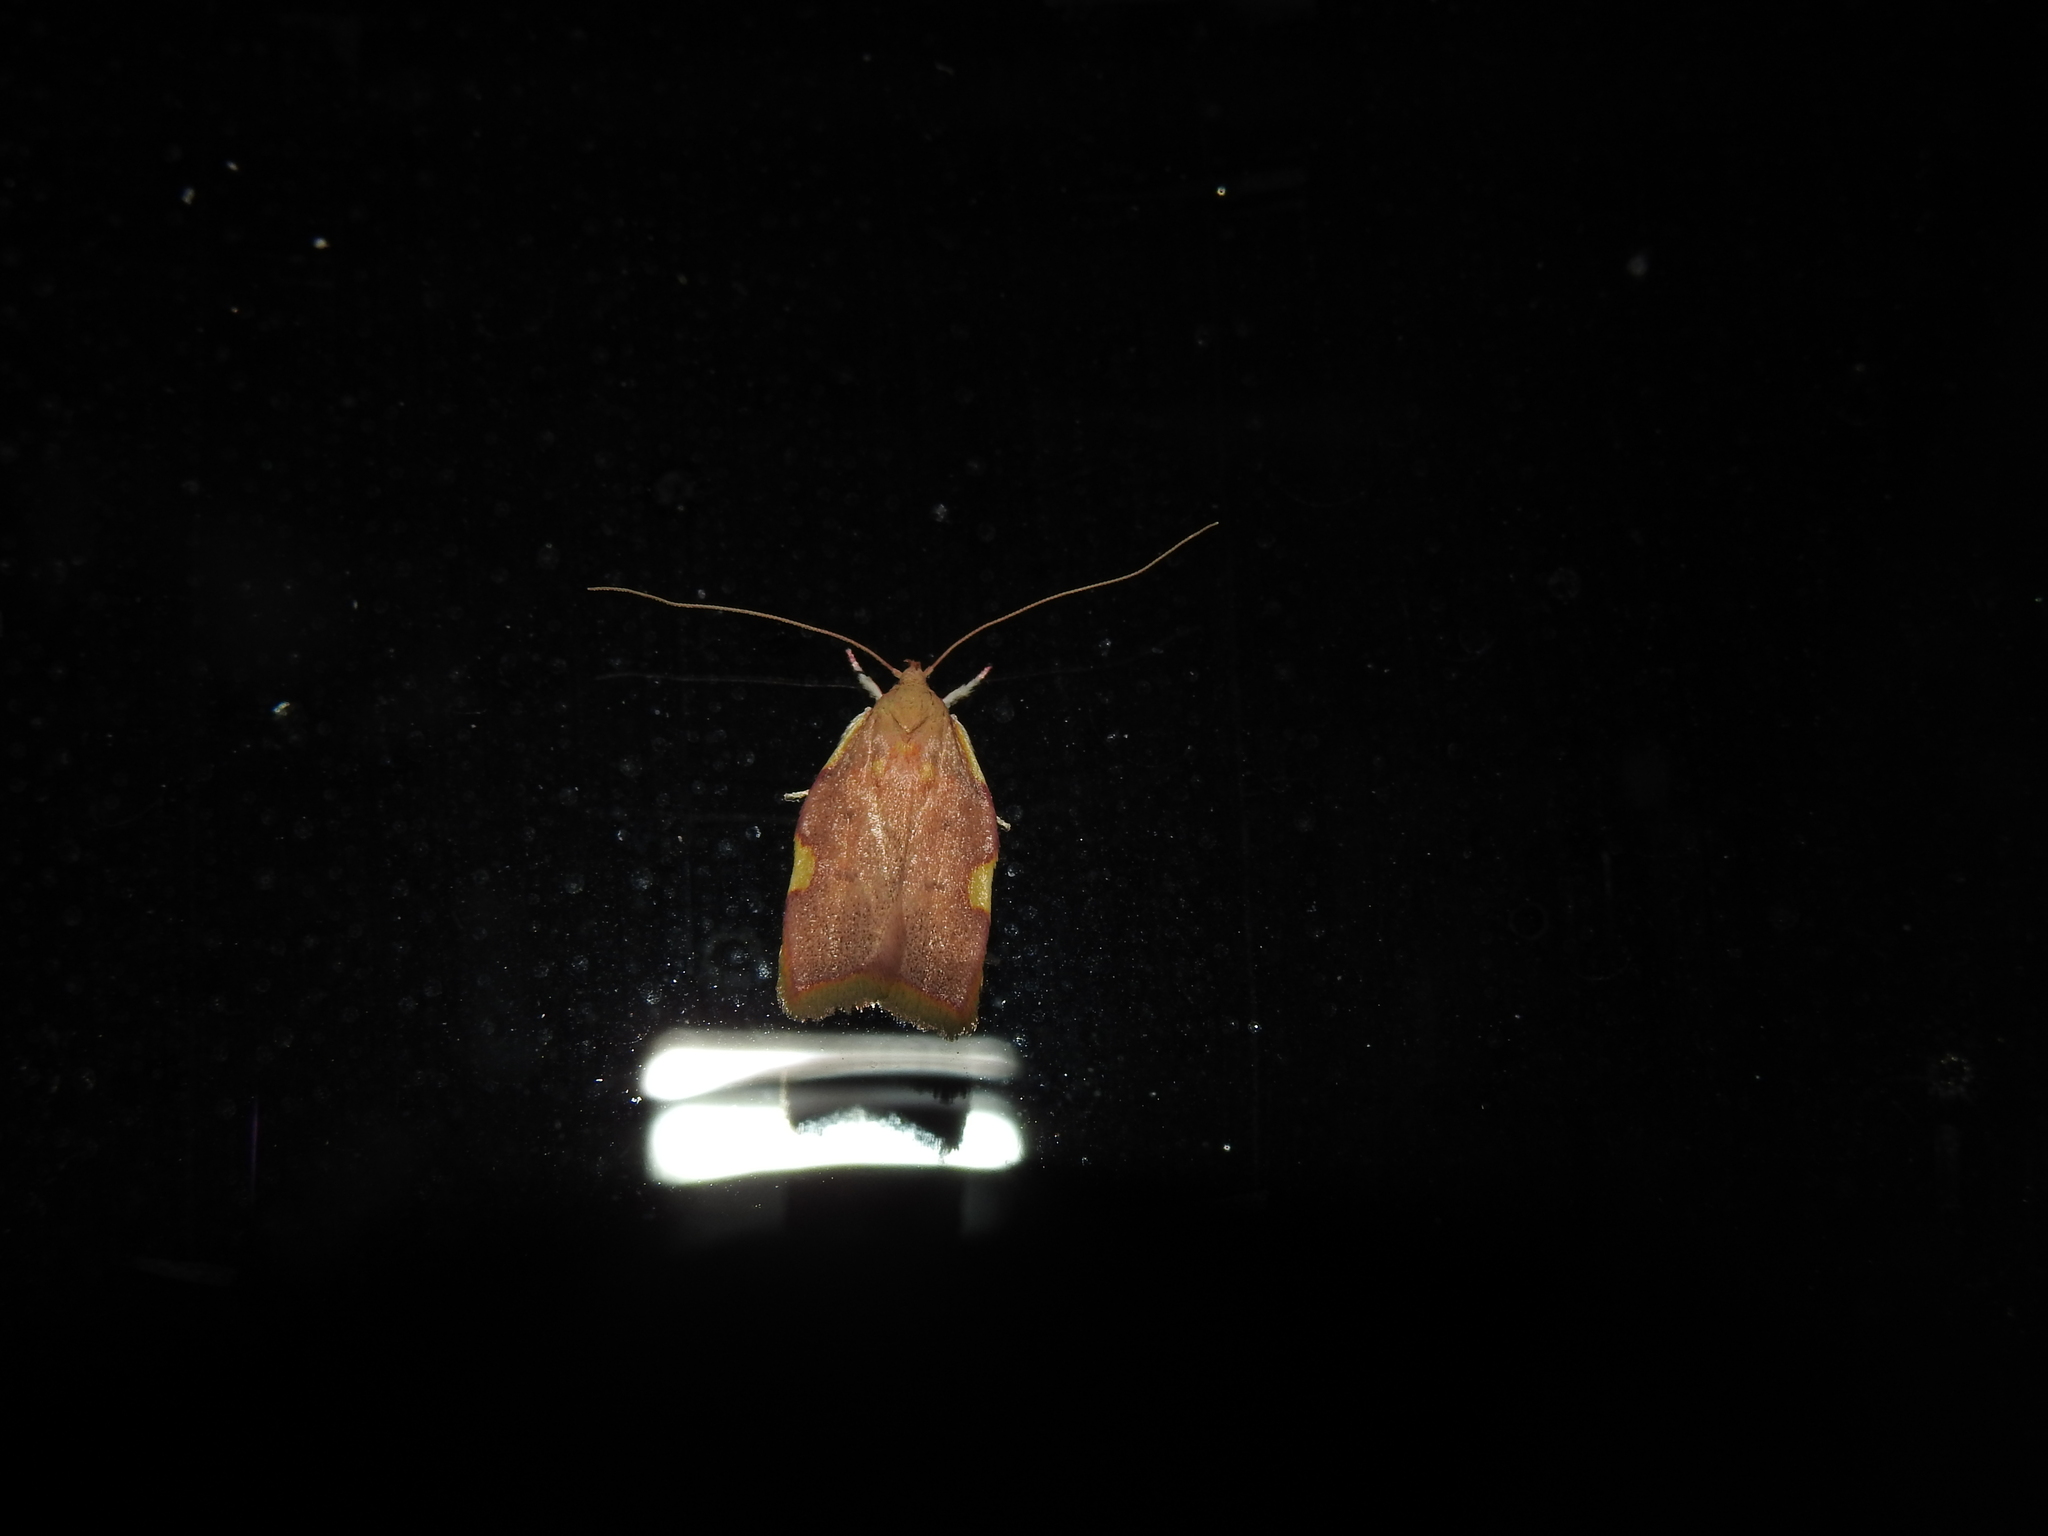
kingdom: Animalia
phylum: Arthropoda
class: Insecta
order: Lepidoptera
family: Peleopodidae
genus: Carcina
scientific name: Carcina quercana
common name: Moth
